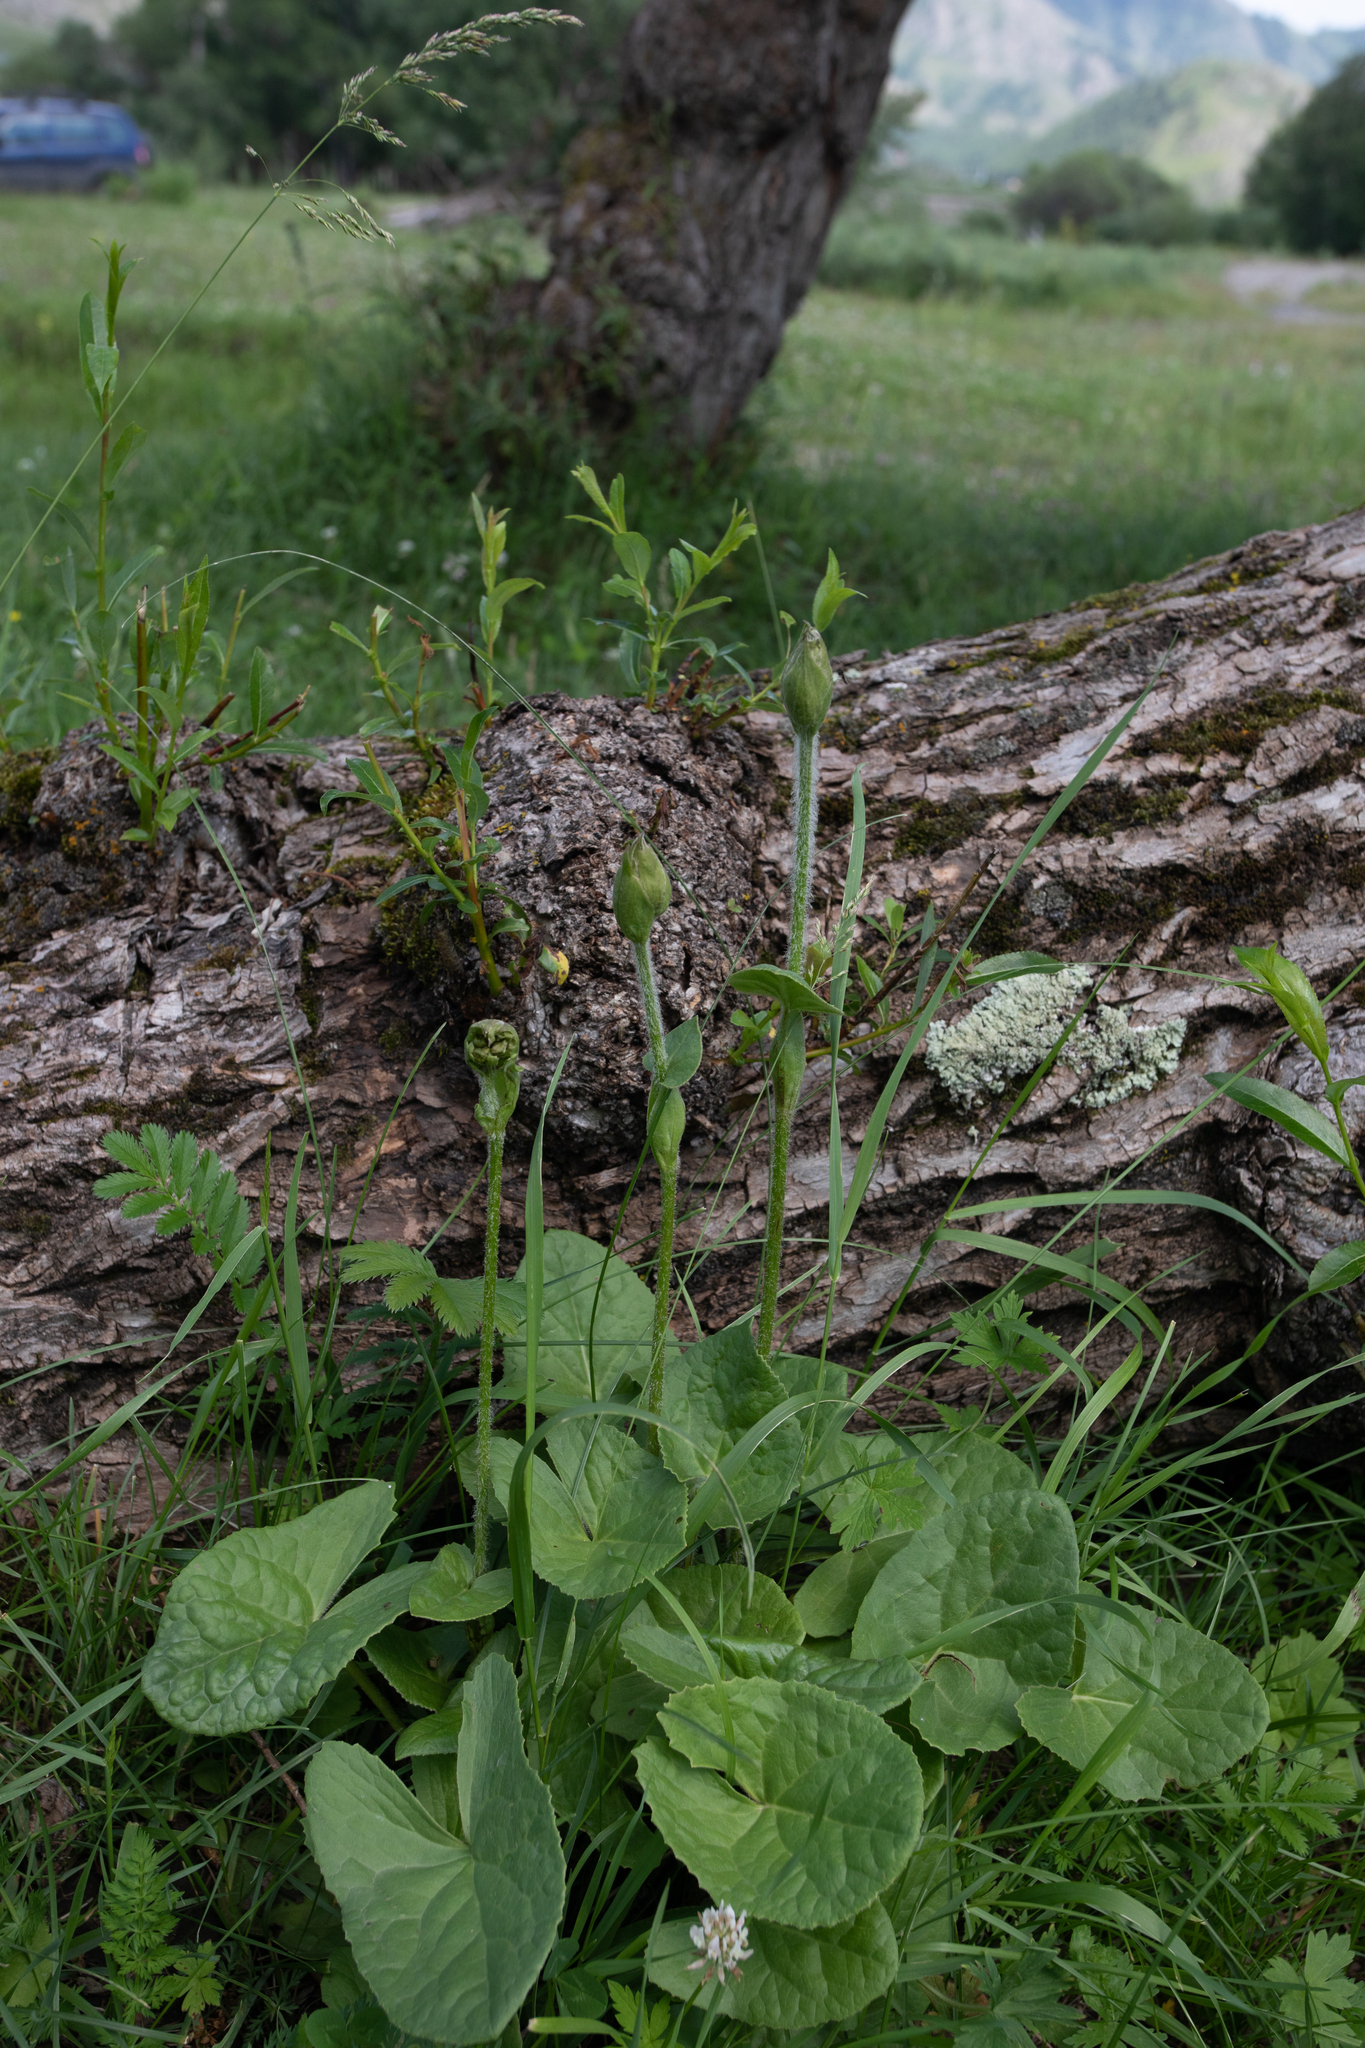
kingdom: Plantae
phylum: Tracheophyta
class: Magnoliopsida
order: Asterales
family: Asteraceae
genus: Ligularia
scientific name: Ligularia sibirica
